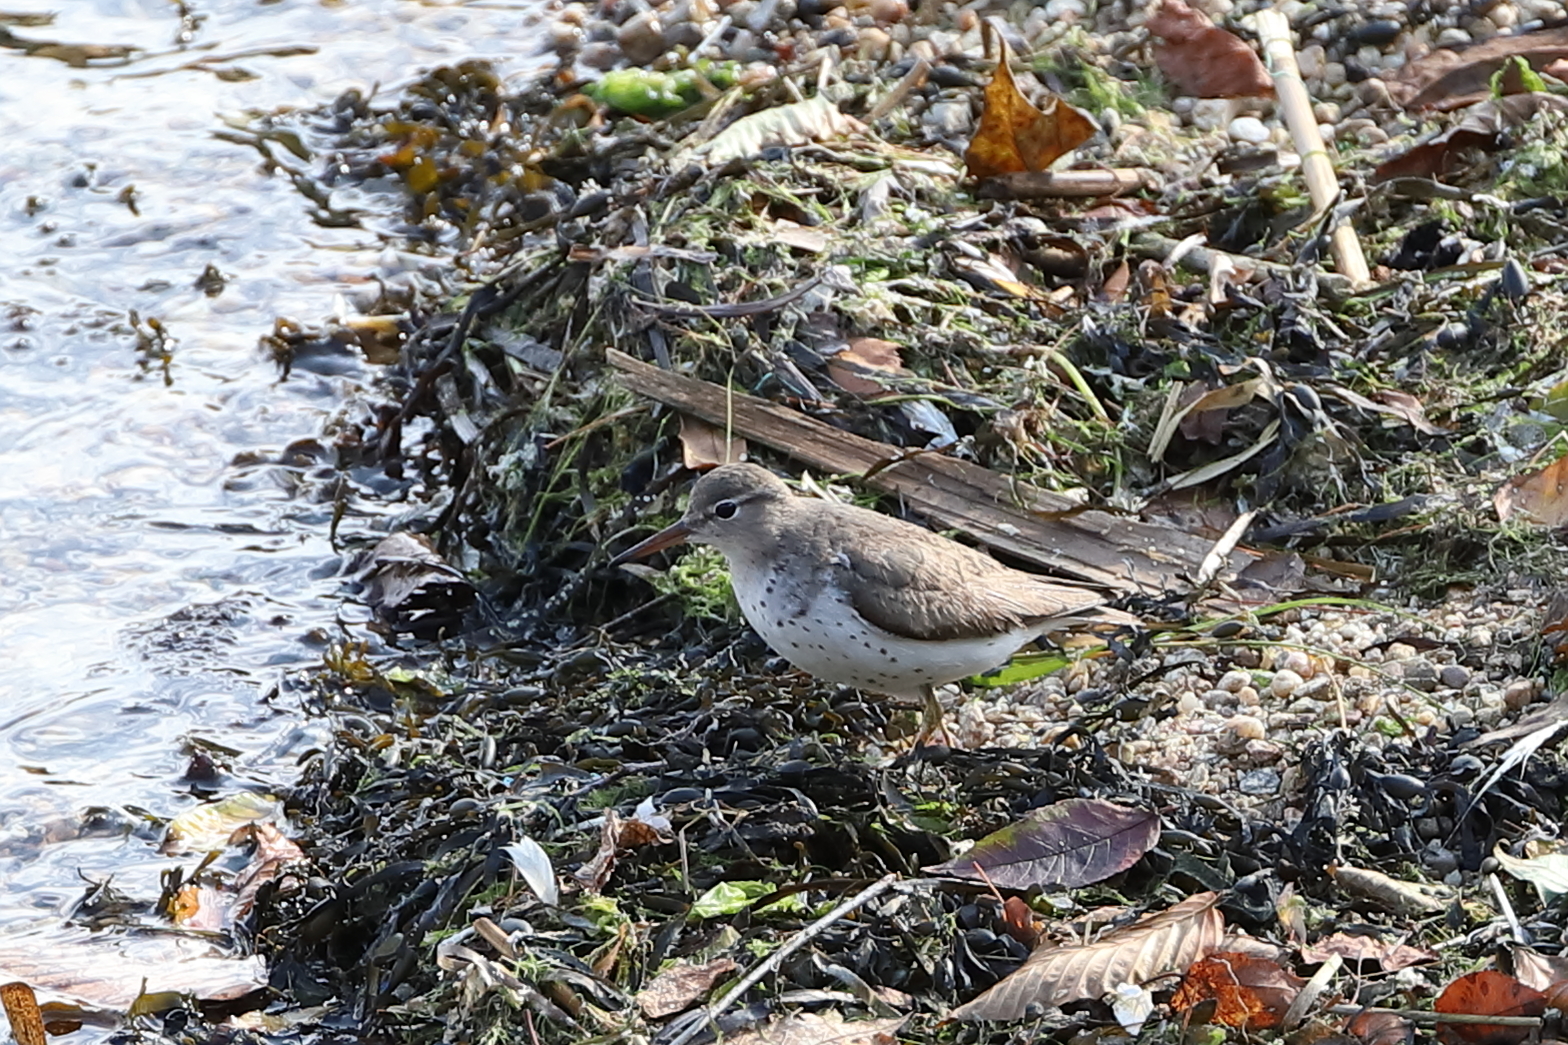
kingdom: Animalia
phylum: Chordata
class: Aves
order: Charadriiformes
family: Scolopacidae
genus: Actitis
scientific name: Actitis macularius
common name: Spotted sandpiper
